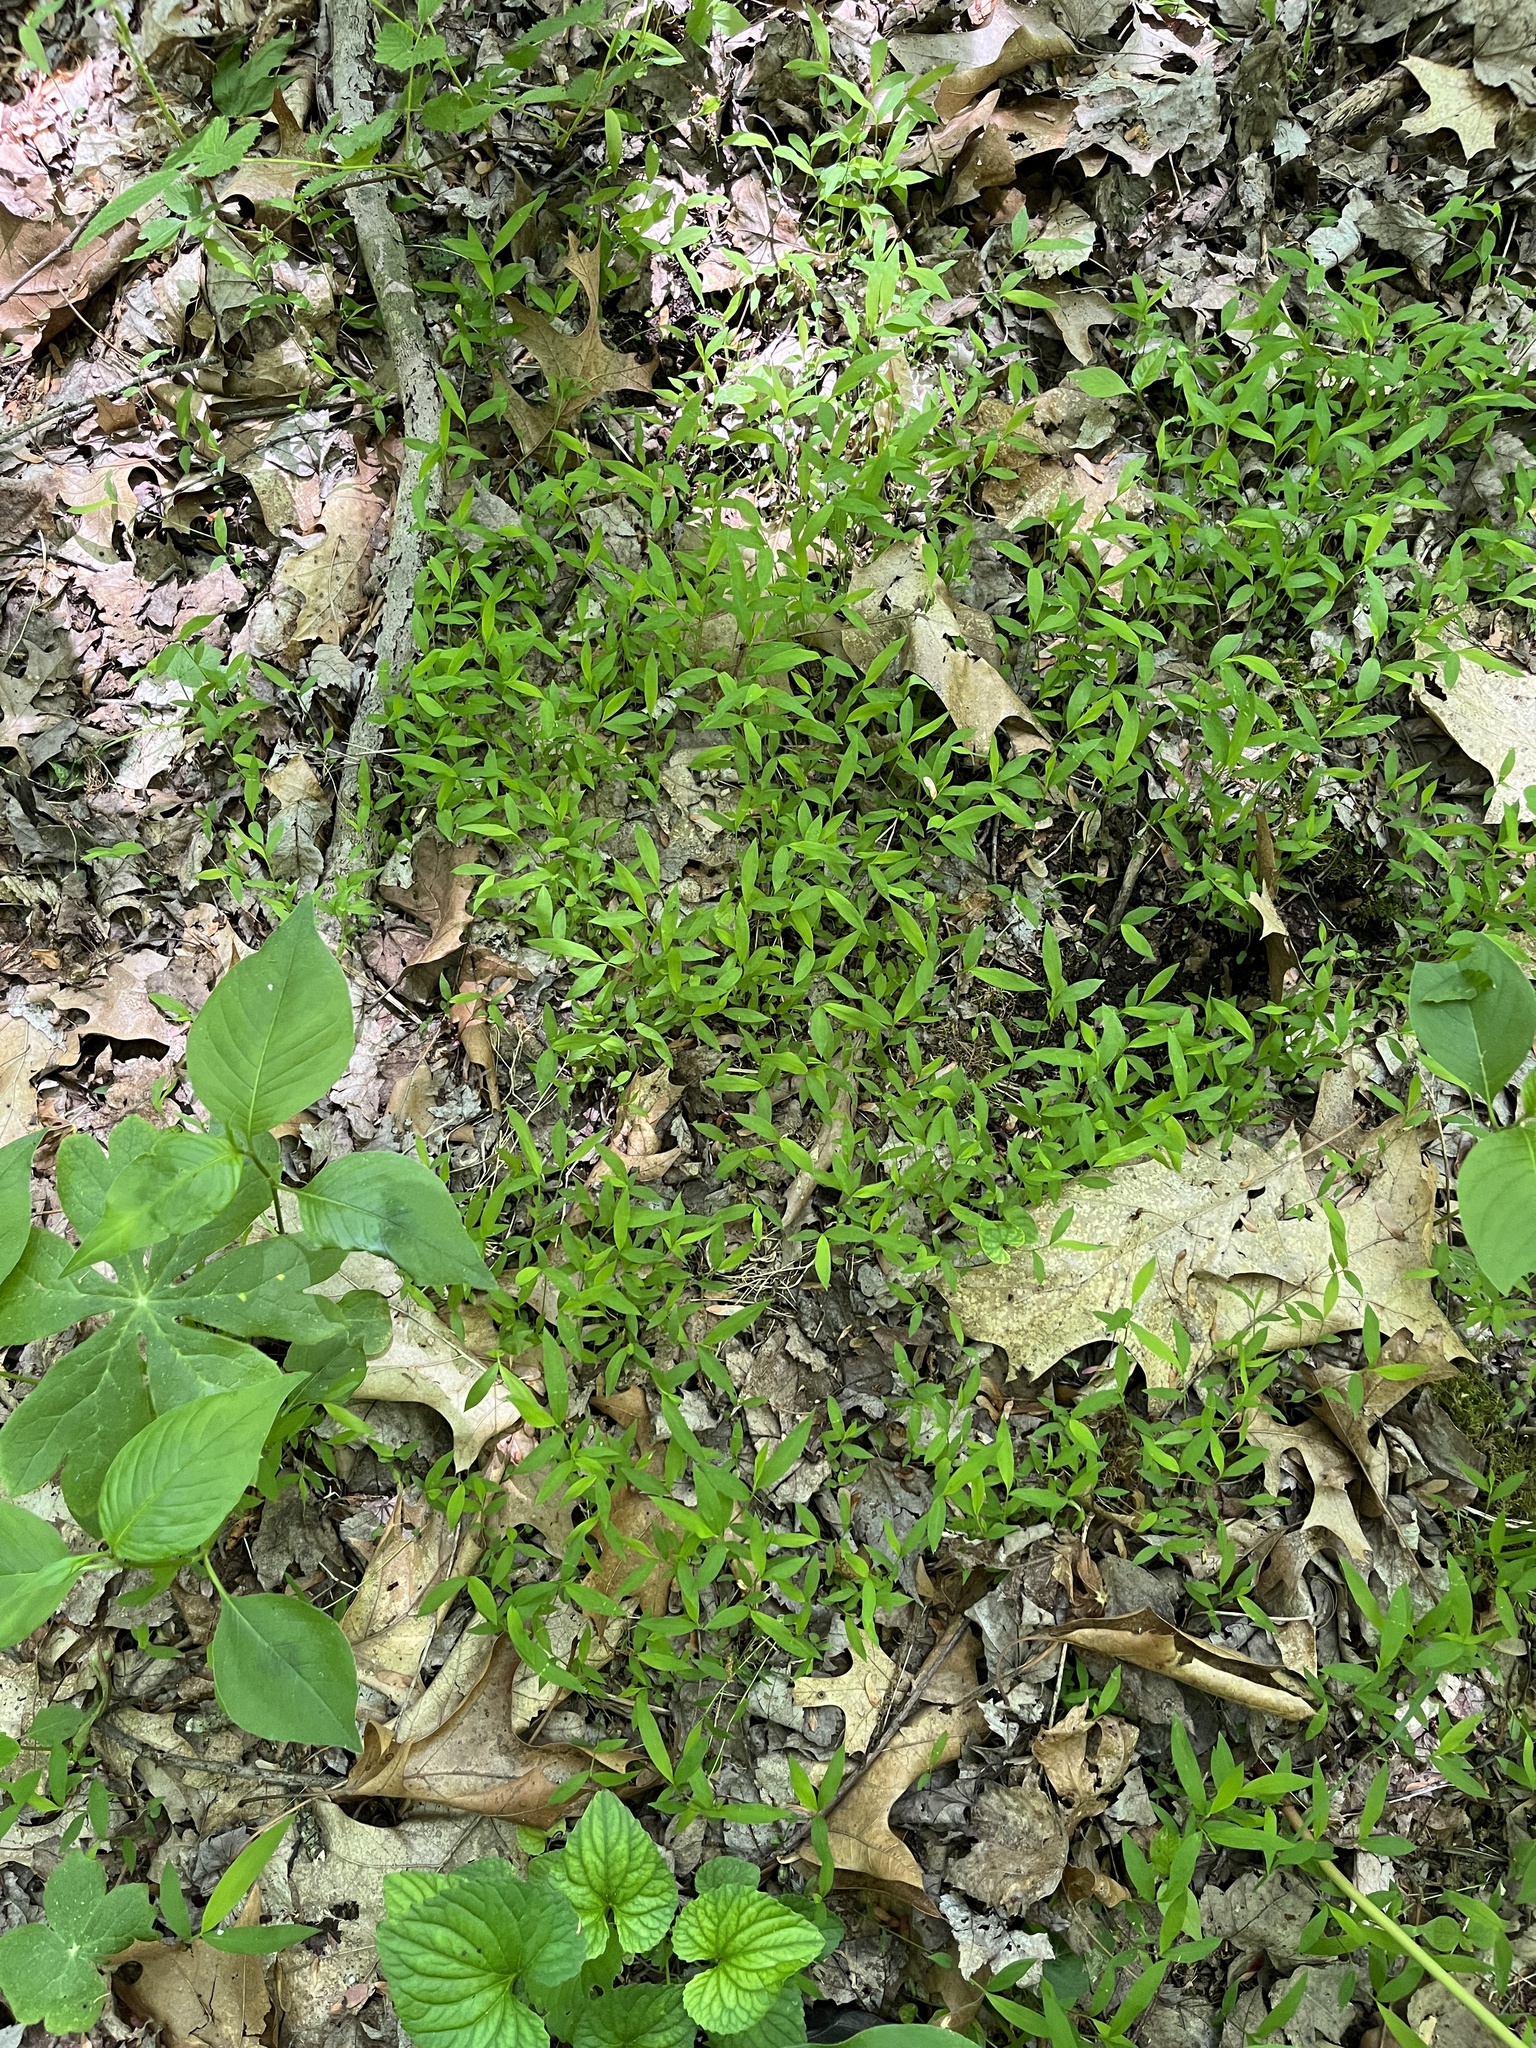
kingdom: Plantae
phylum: Tracheophyta
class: Liliopsida
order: Poales
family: Poaceae
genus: Microstegium
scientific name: Microstegium vimineum
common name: Japanese stiltgrass
